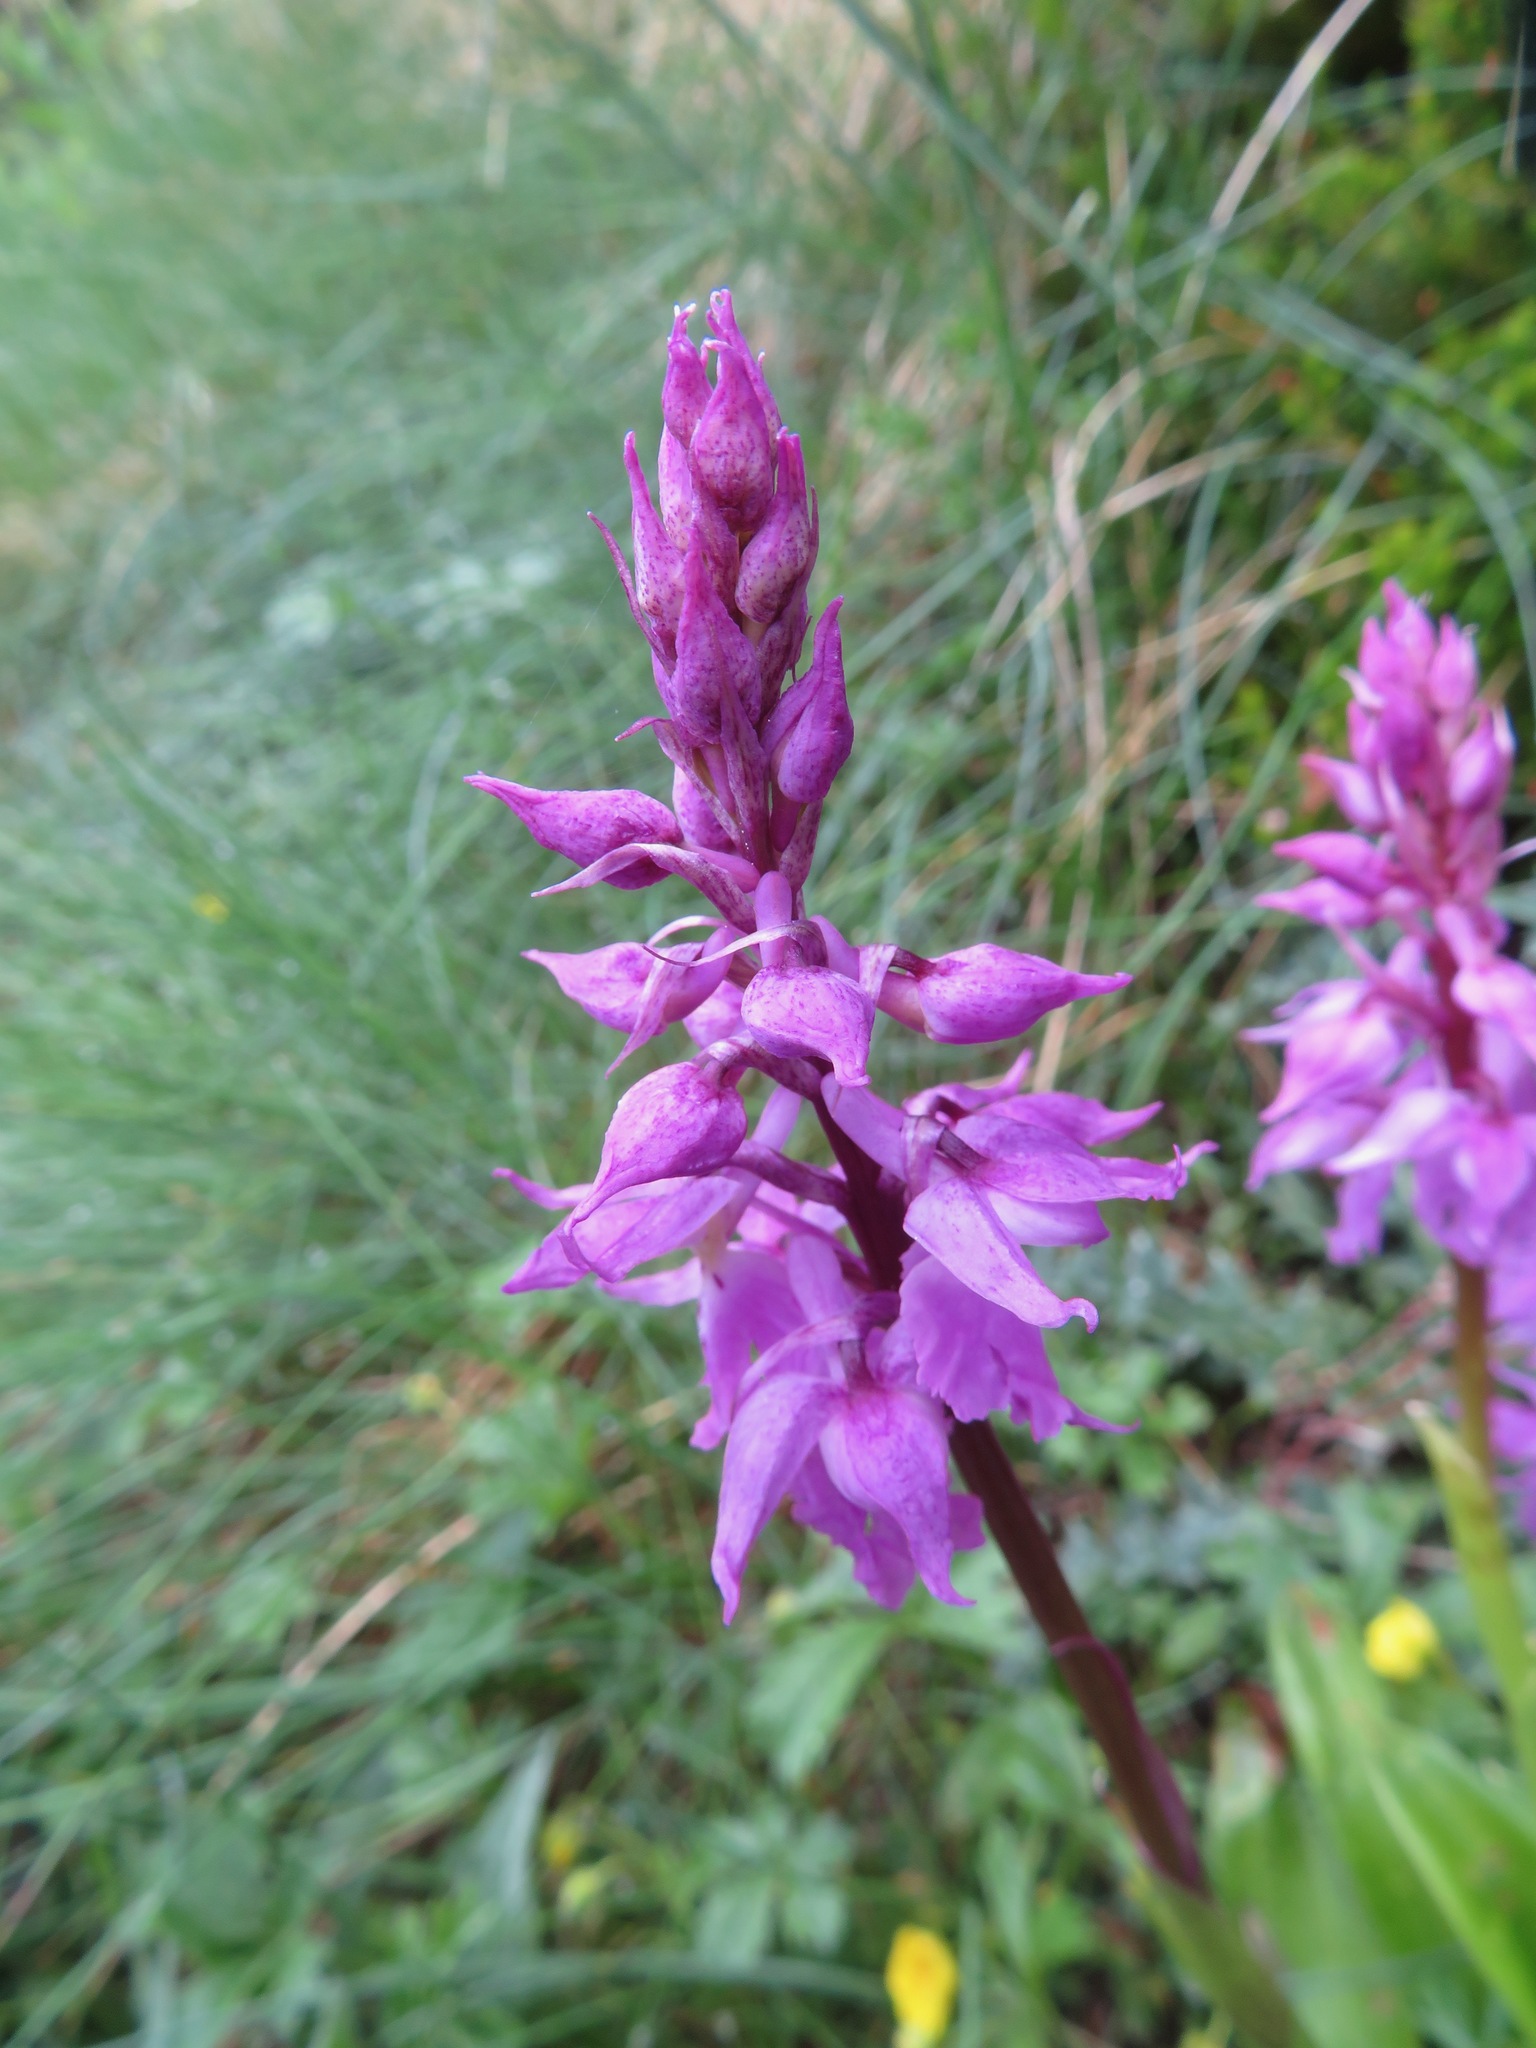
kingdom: Plantae
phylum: Tracheophyta
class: Liliopsida
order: Asparagales
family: Orchidaceae
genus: Orchis
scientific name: Orchis mascula
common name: Early-purple orchid
